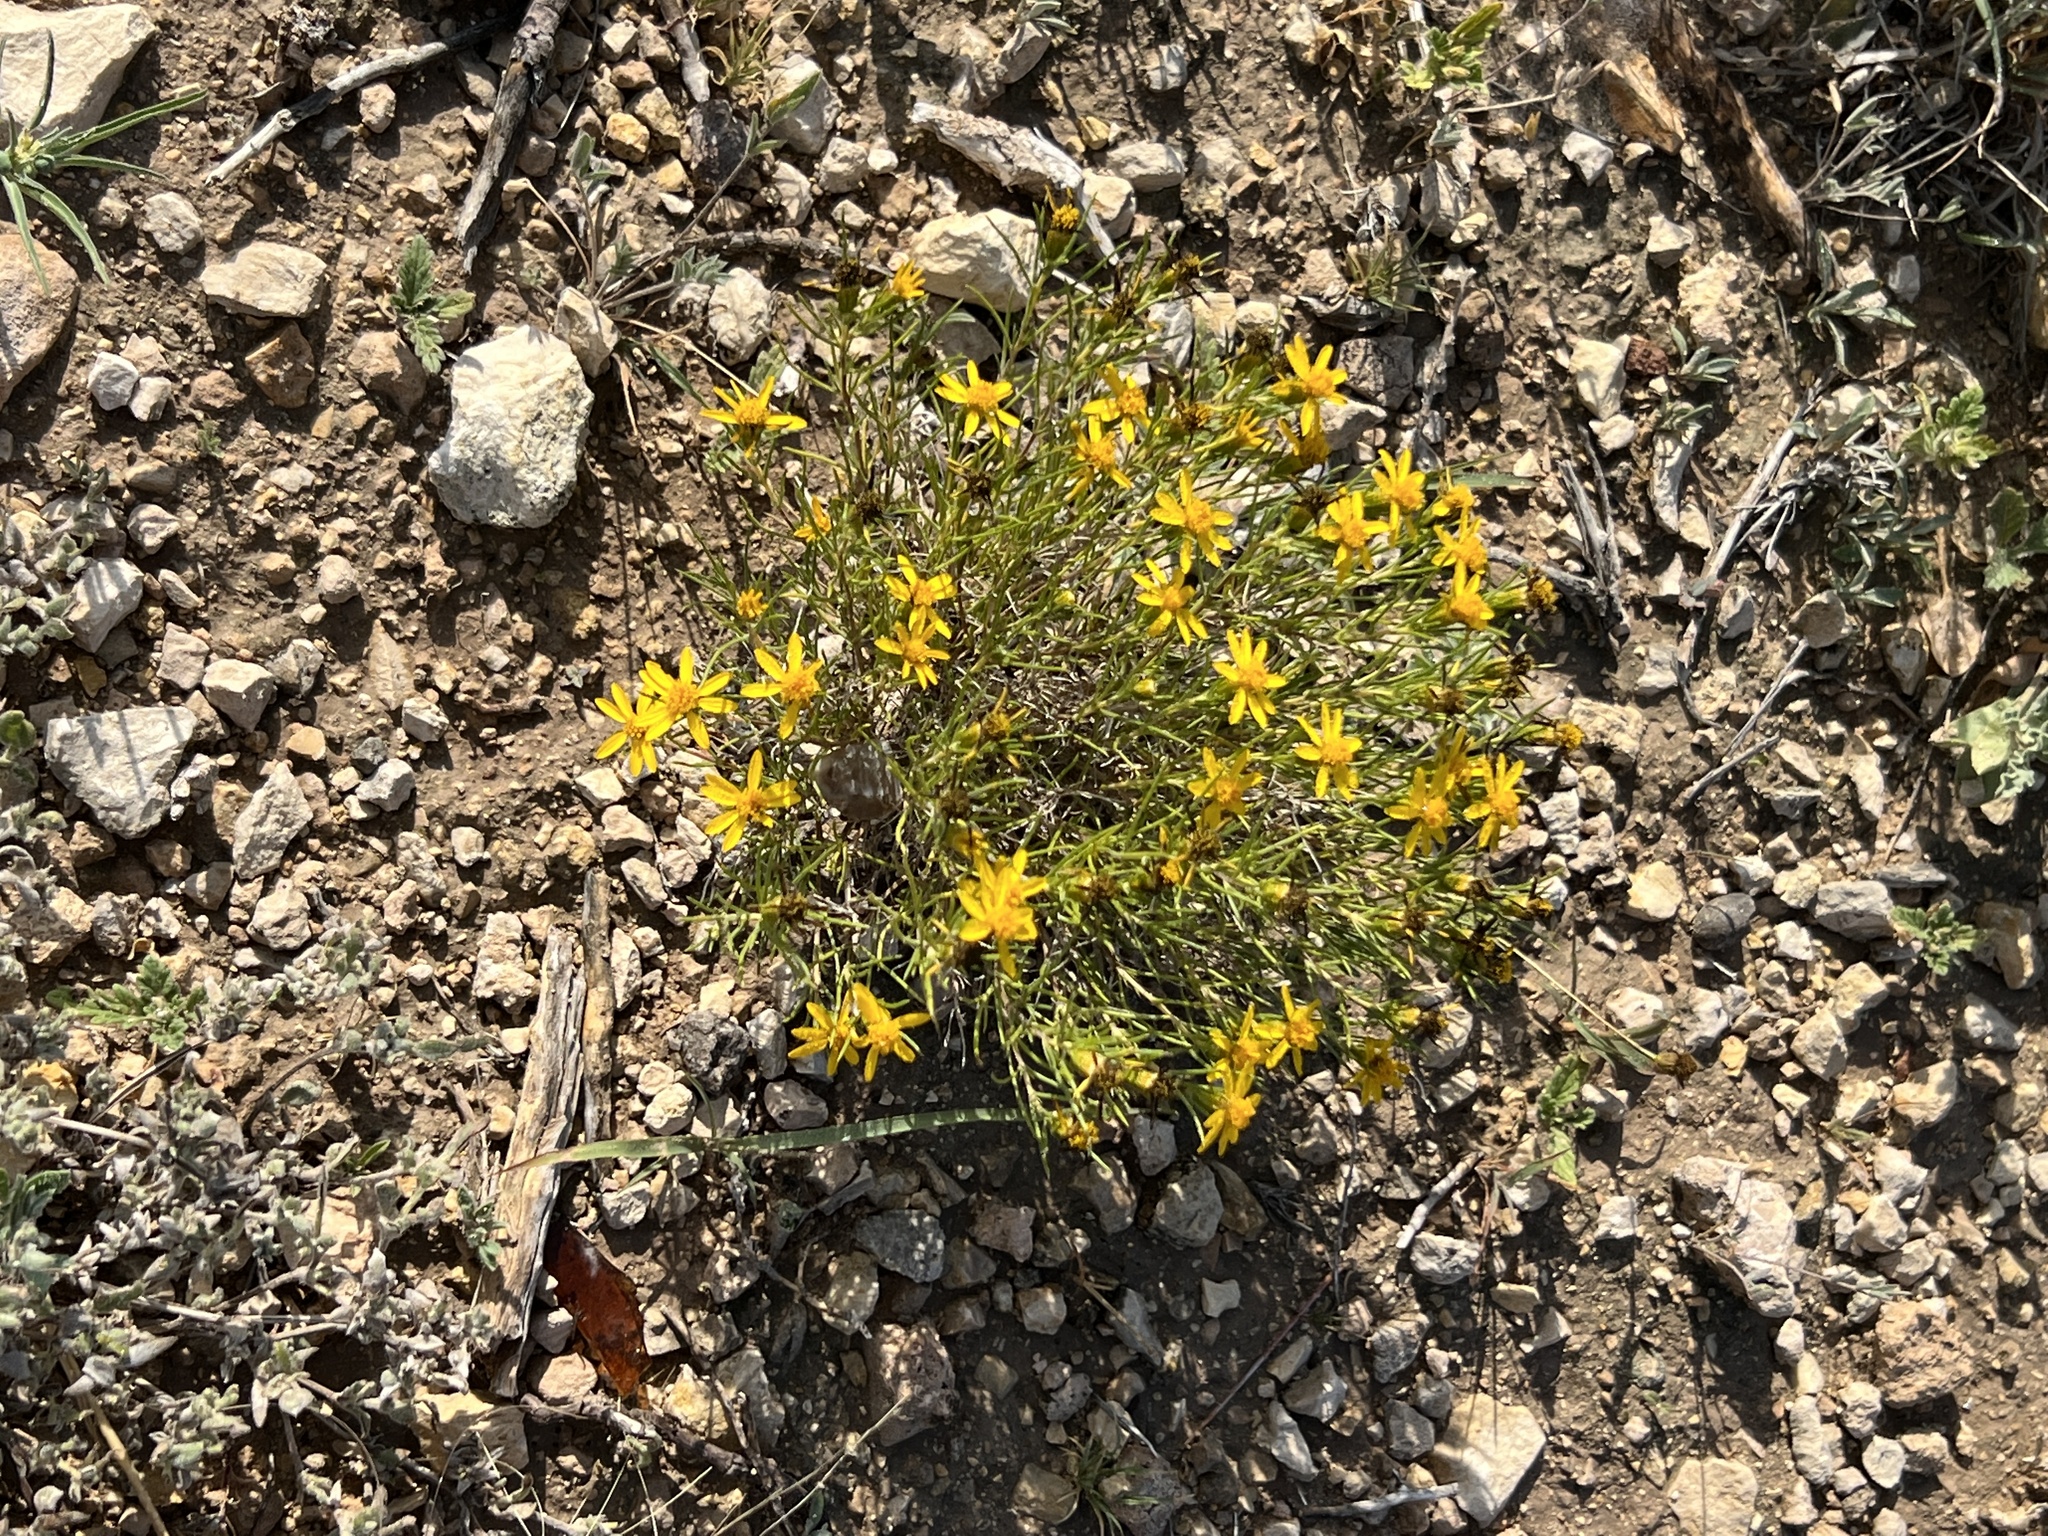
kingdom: Plantae
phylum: Tracheophyta
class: Magnoliopsida
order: Asterales
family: Asteraceae
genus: Thymophylla
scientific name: Thymophylla acerosa
